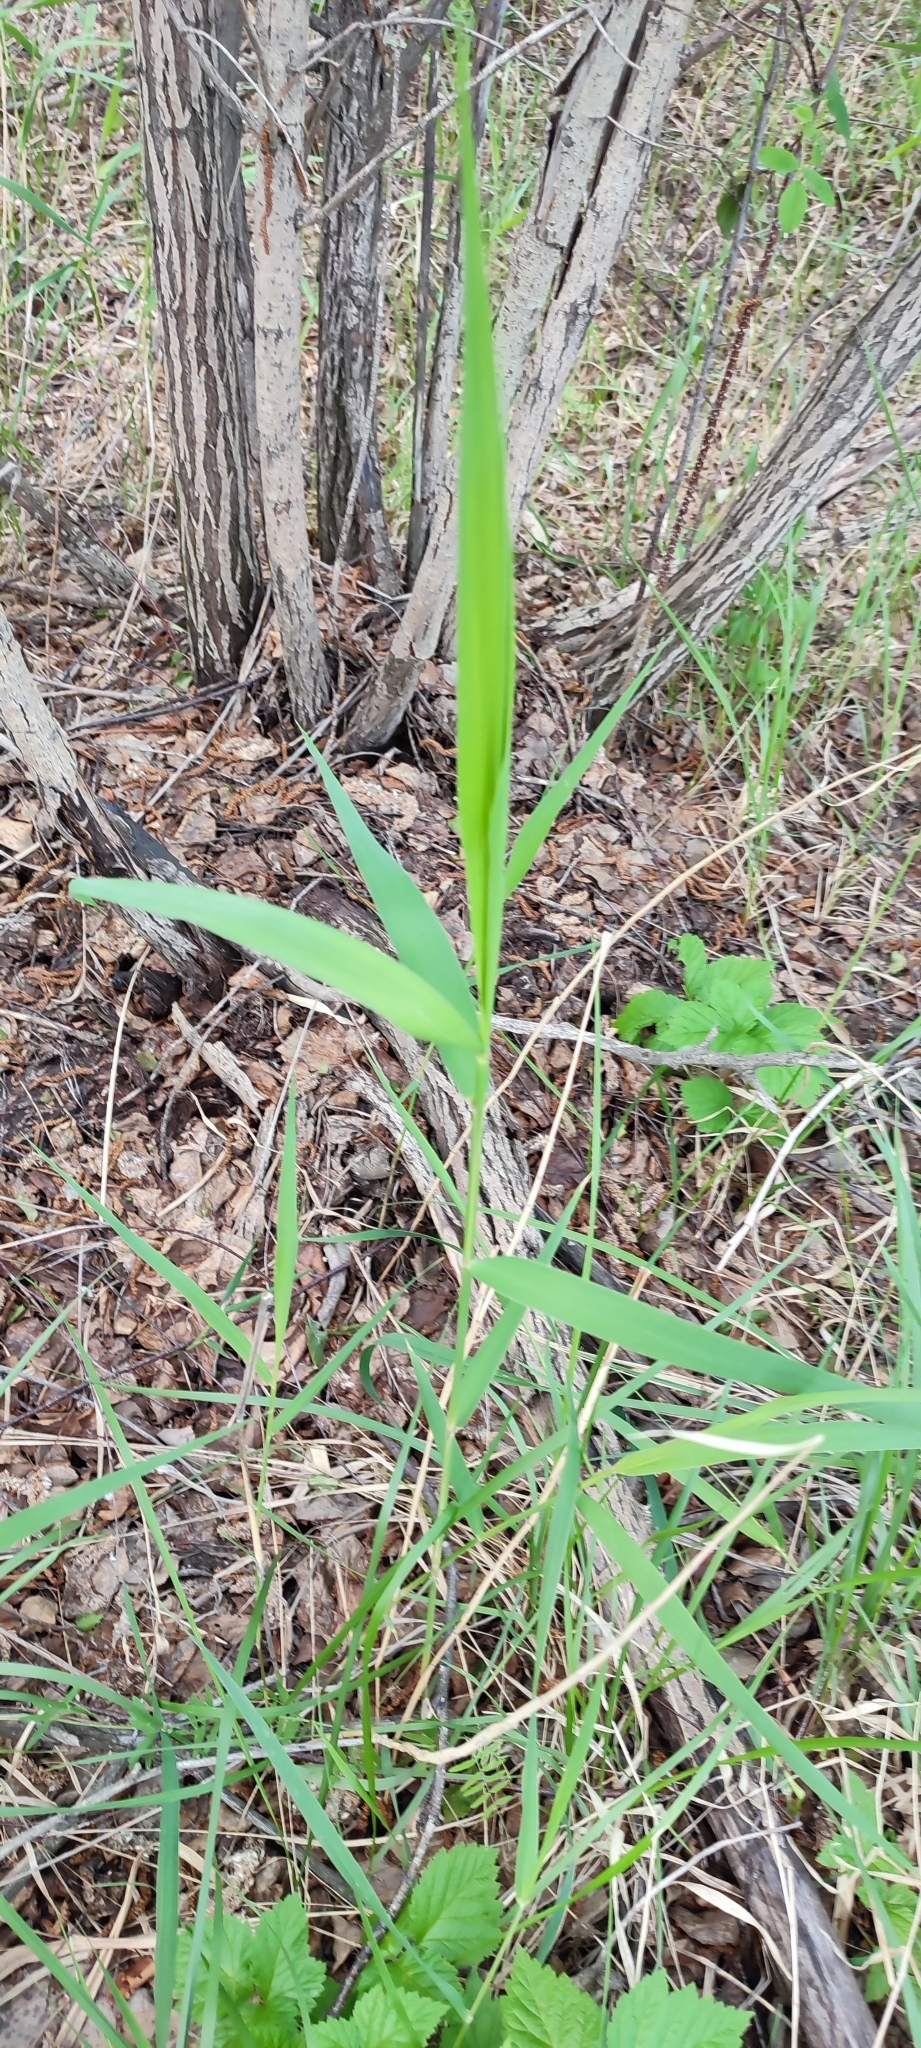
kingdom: Plantae
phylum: Tracheophyta
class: Liliopsida
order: Poales
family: Poaceae
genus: Phragmites
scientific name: Phragmites australis
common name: Common reed
